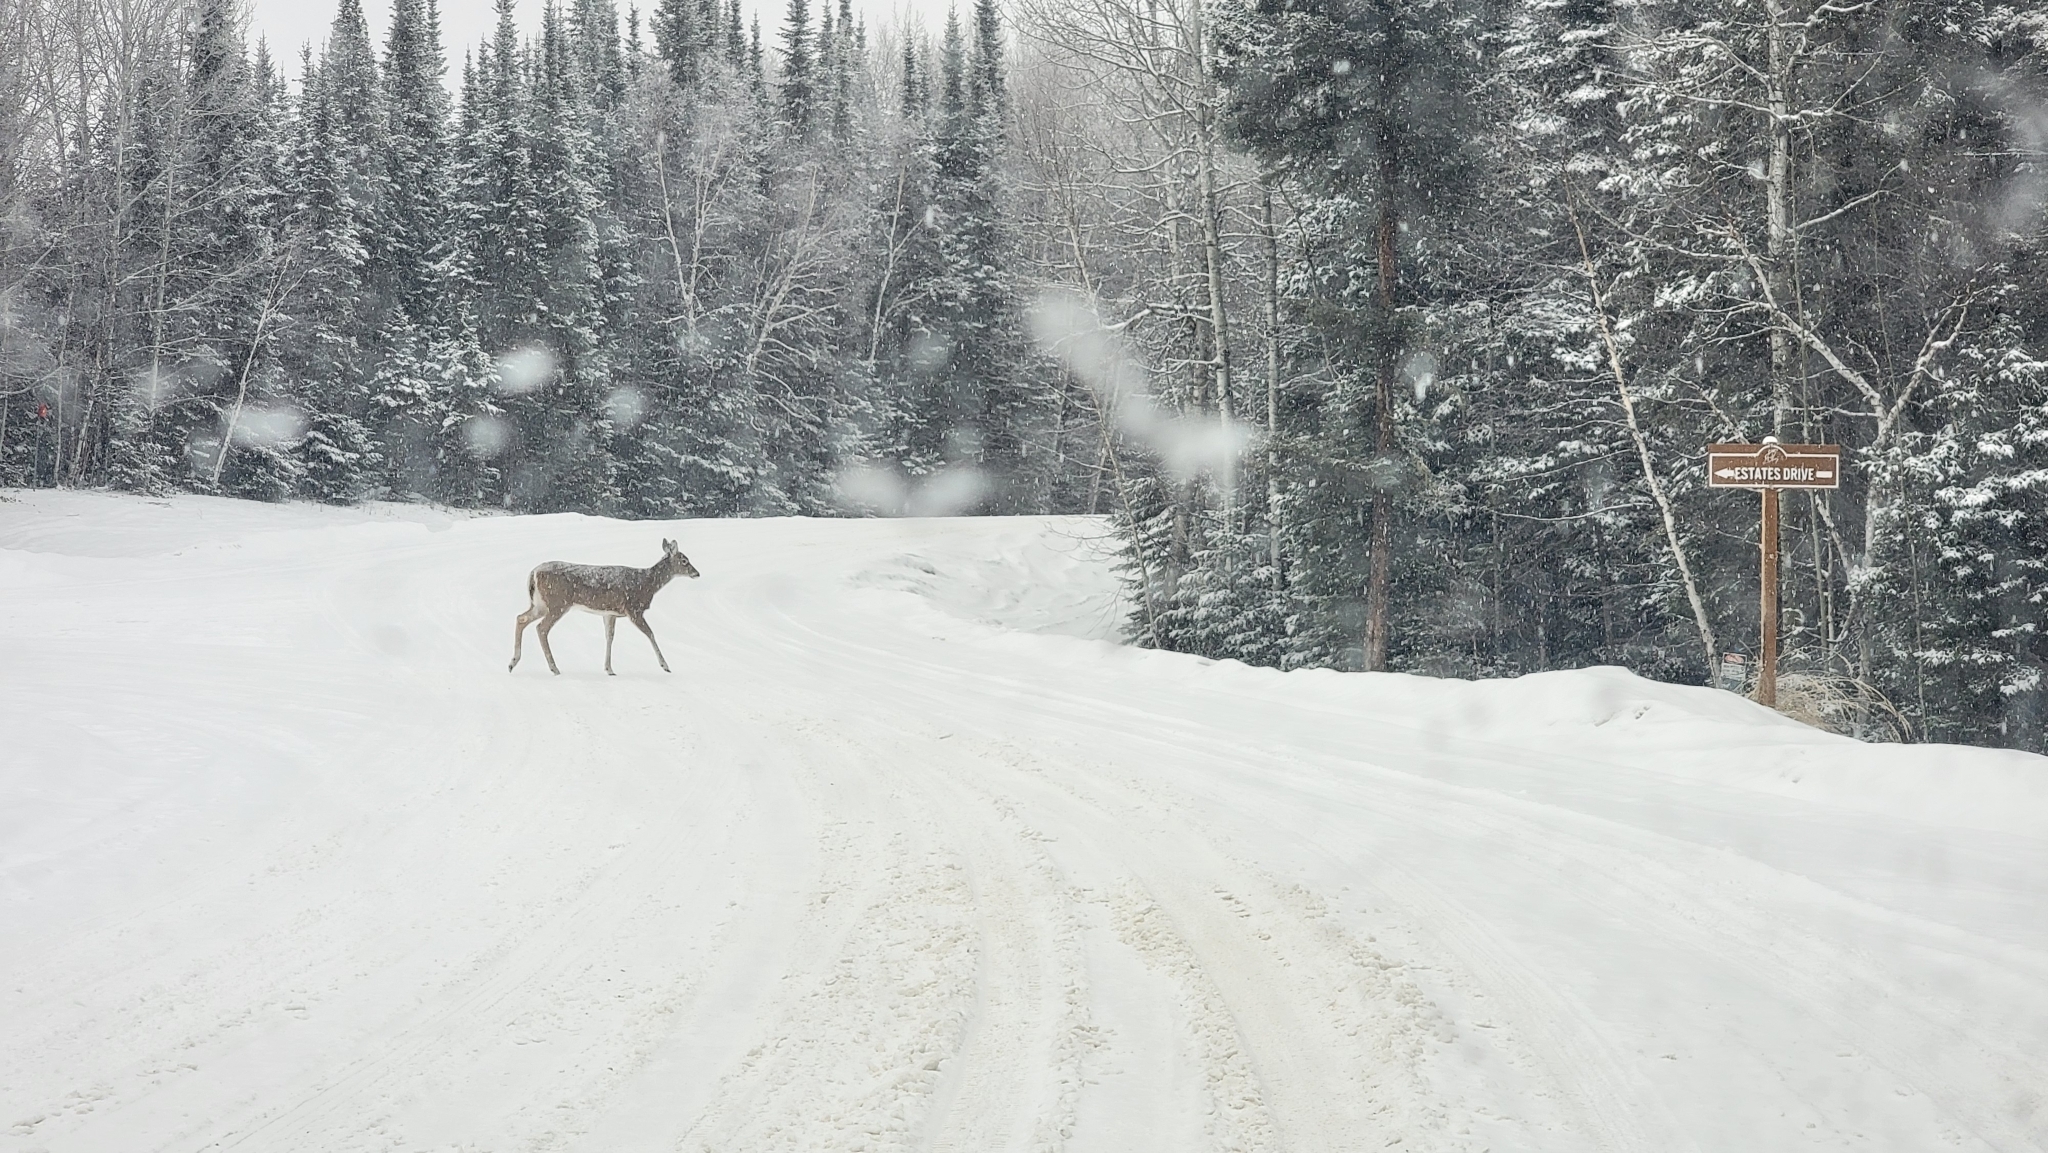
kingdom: Animalia
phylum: Chordata
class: Mammalia
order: Artiodactyla
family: Cervidae
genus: Odocoileus
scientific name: Odocoileus virginianus
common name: White-tailed deer
